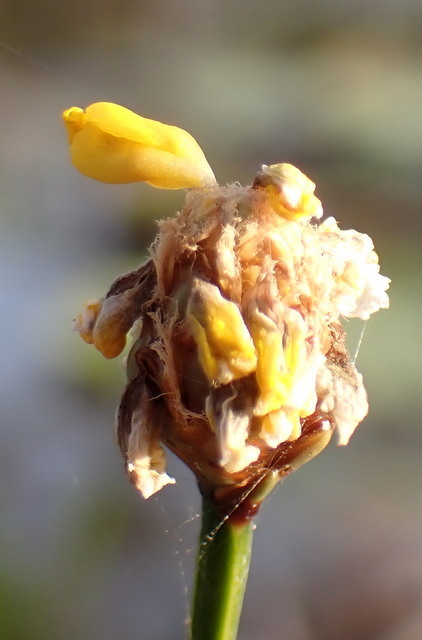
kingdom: Plantae
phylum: Tracheophyta
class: Liliopsida
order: Poales
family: Xyridaceae
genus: Xyris
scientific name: Xyris fimbriata
